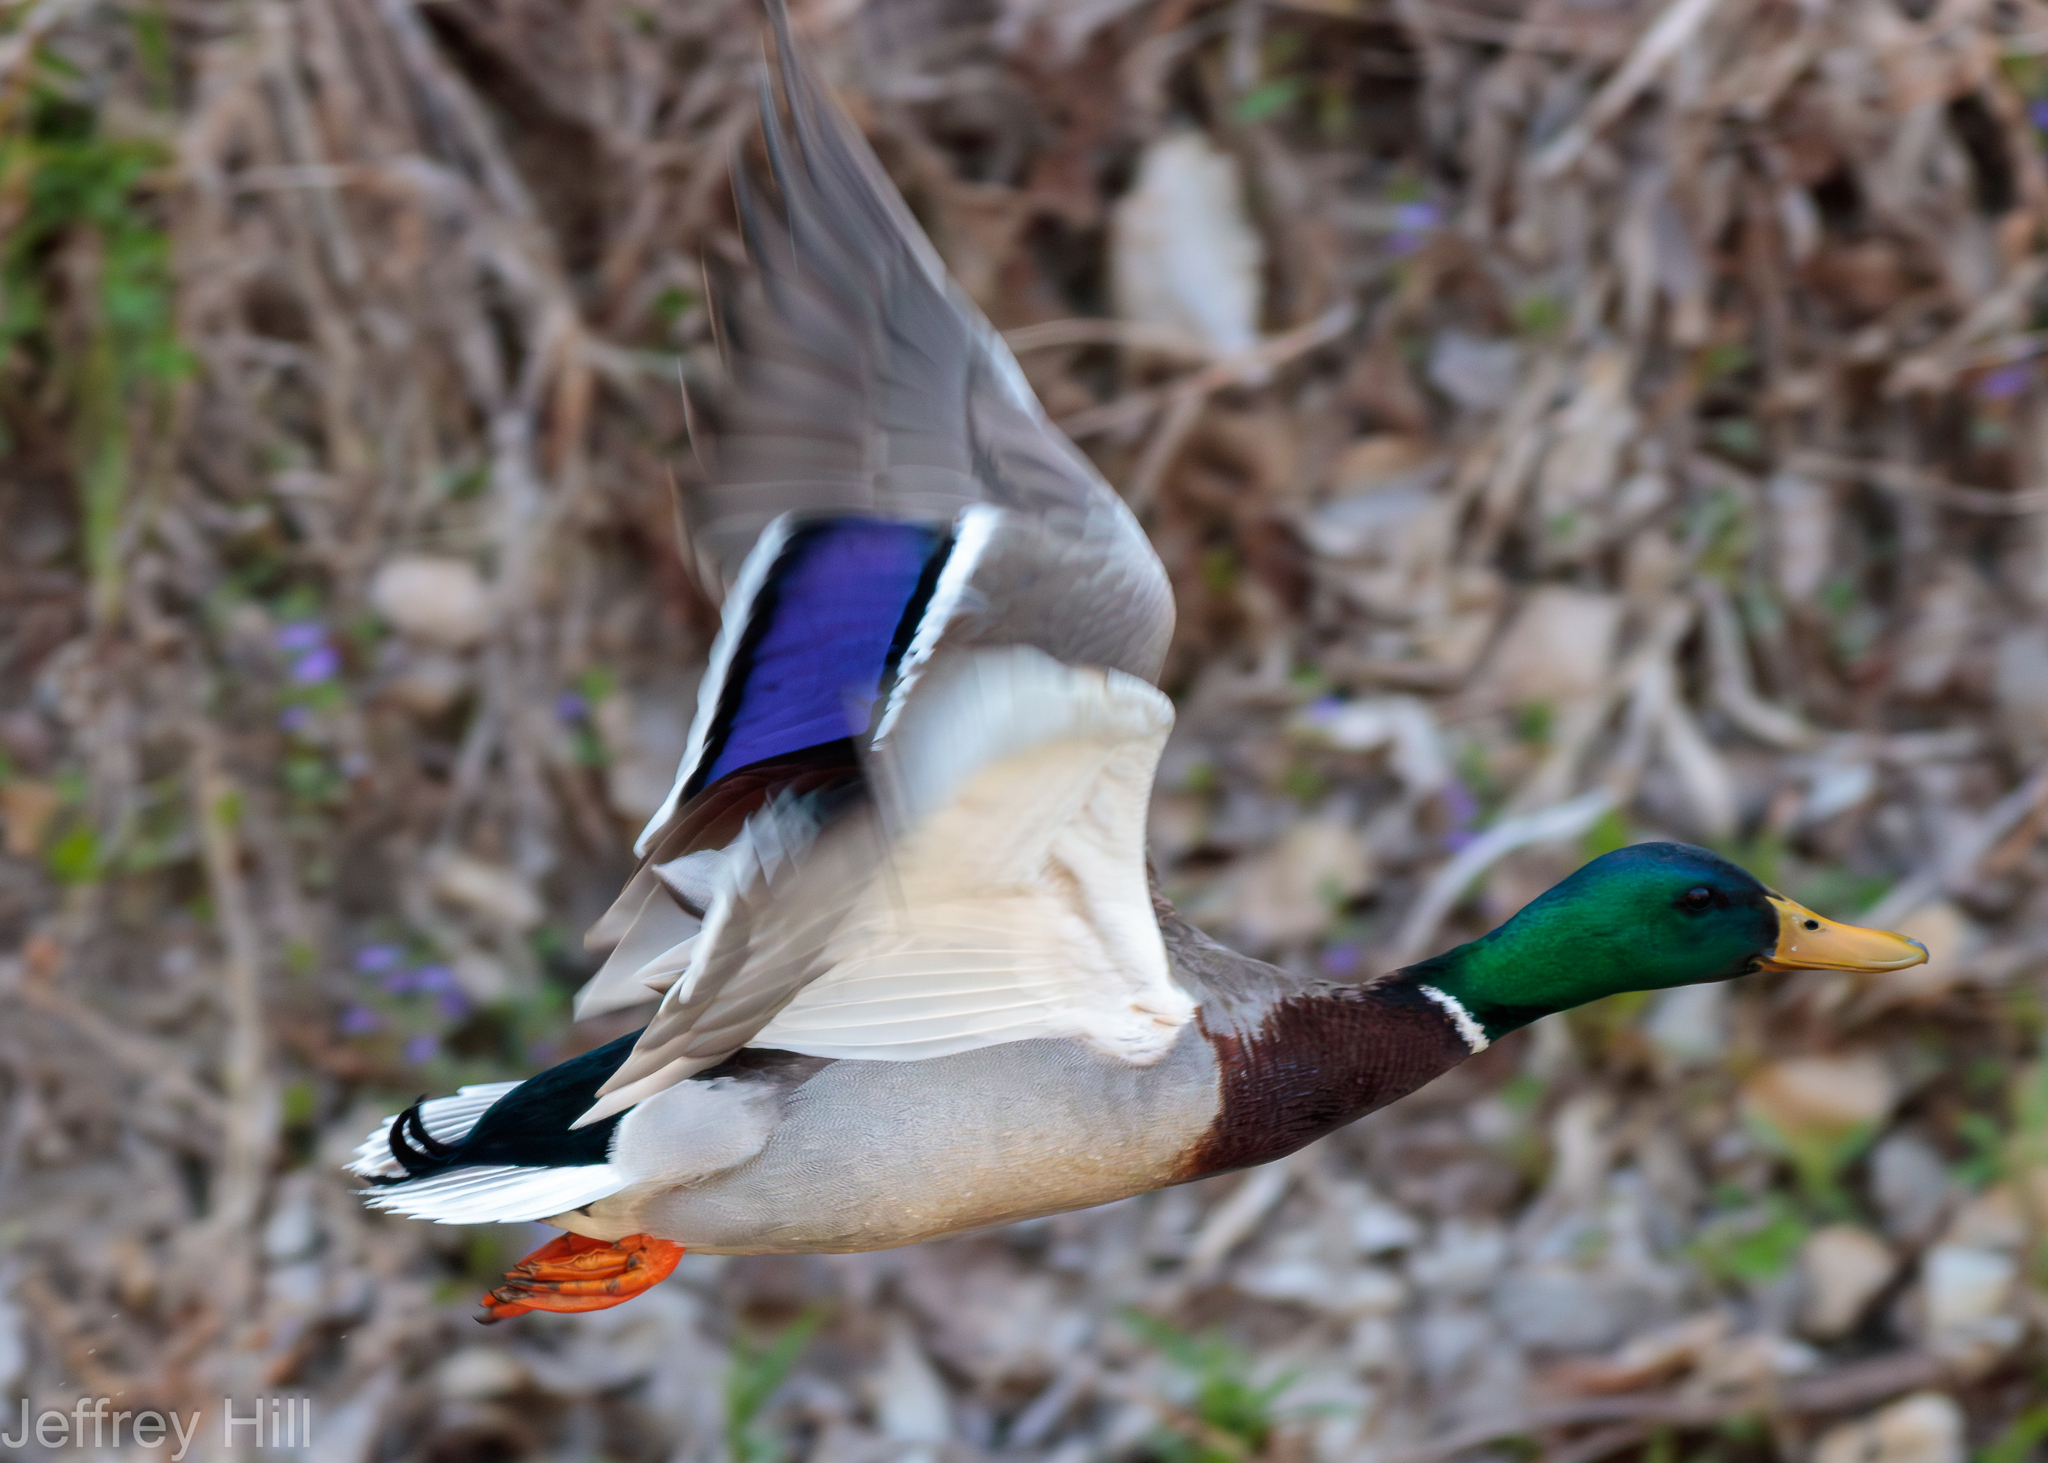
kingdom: Animalia
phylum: Chordata
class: Aves
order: Anseriformes
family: Anatidae
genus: Anas
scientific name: Anas platyrhynchos
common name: Mallard
